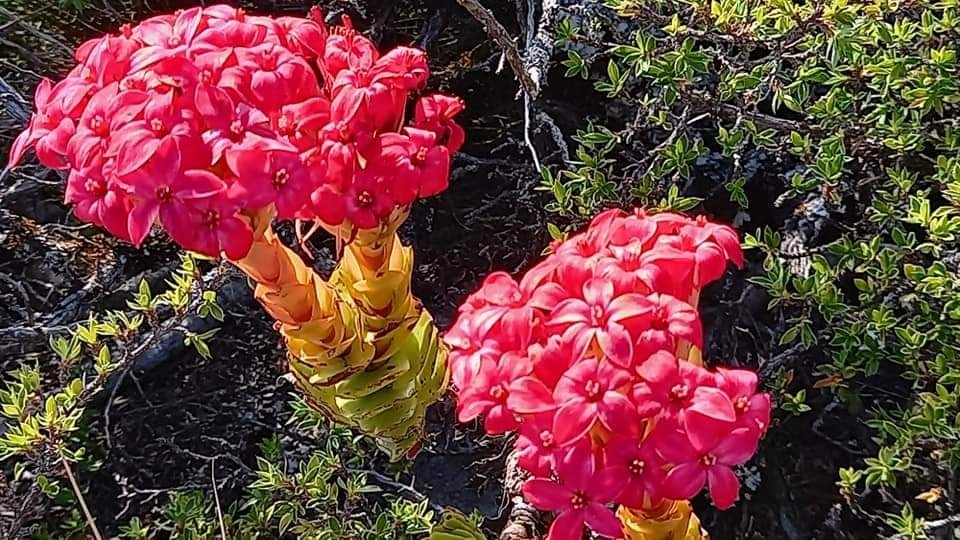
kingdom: Plantae
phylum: Tracheophyta
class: Magnoliopsida
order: Saxifragales
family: Crassulaceae
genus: Crassula
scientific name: Crassula coccinea
